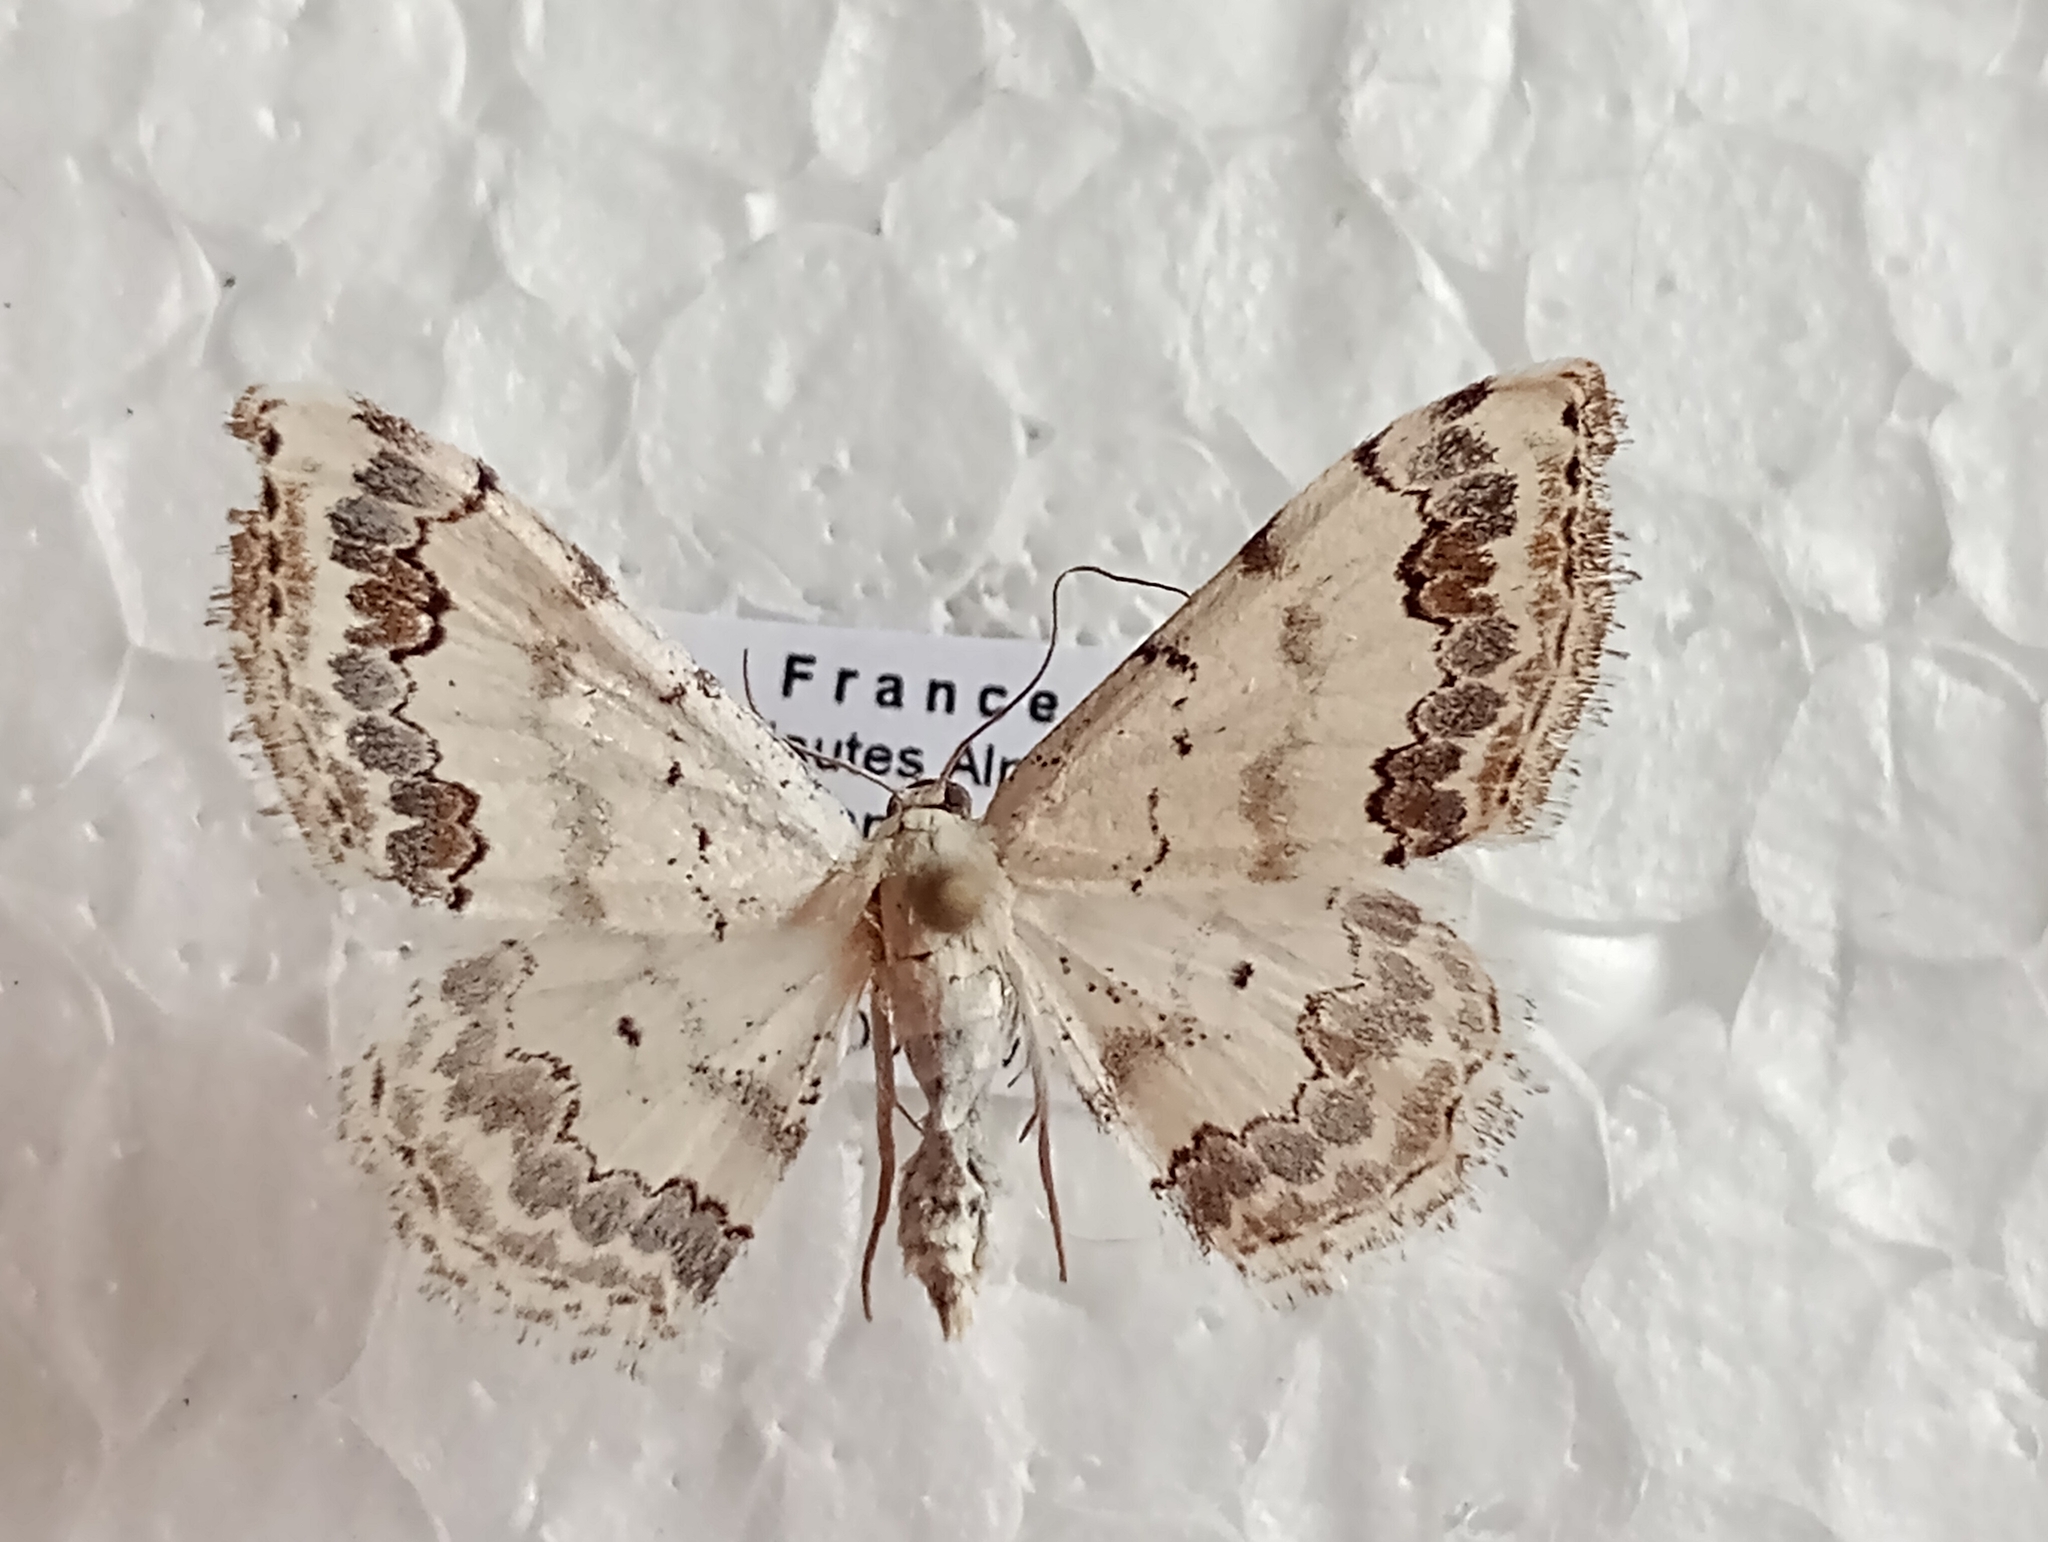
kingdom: Animalia
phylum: Arthropoda
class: Insecta
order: Lepidoptera
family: Geometridae
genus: Scopula
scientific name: Scopula decorata
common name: Middle lace border
